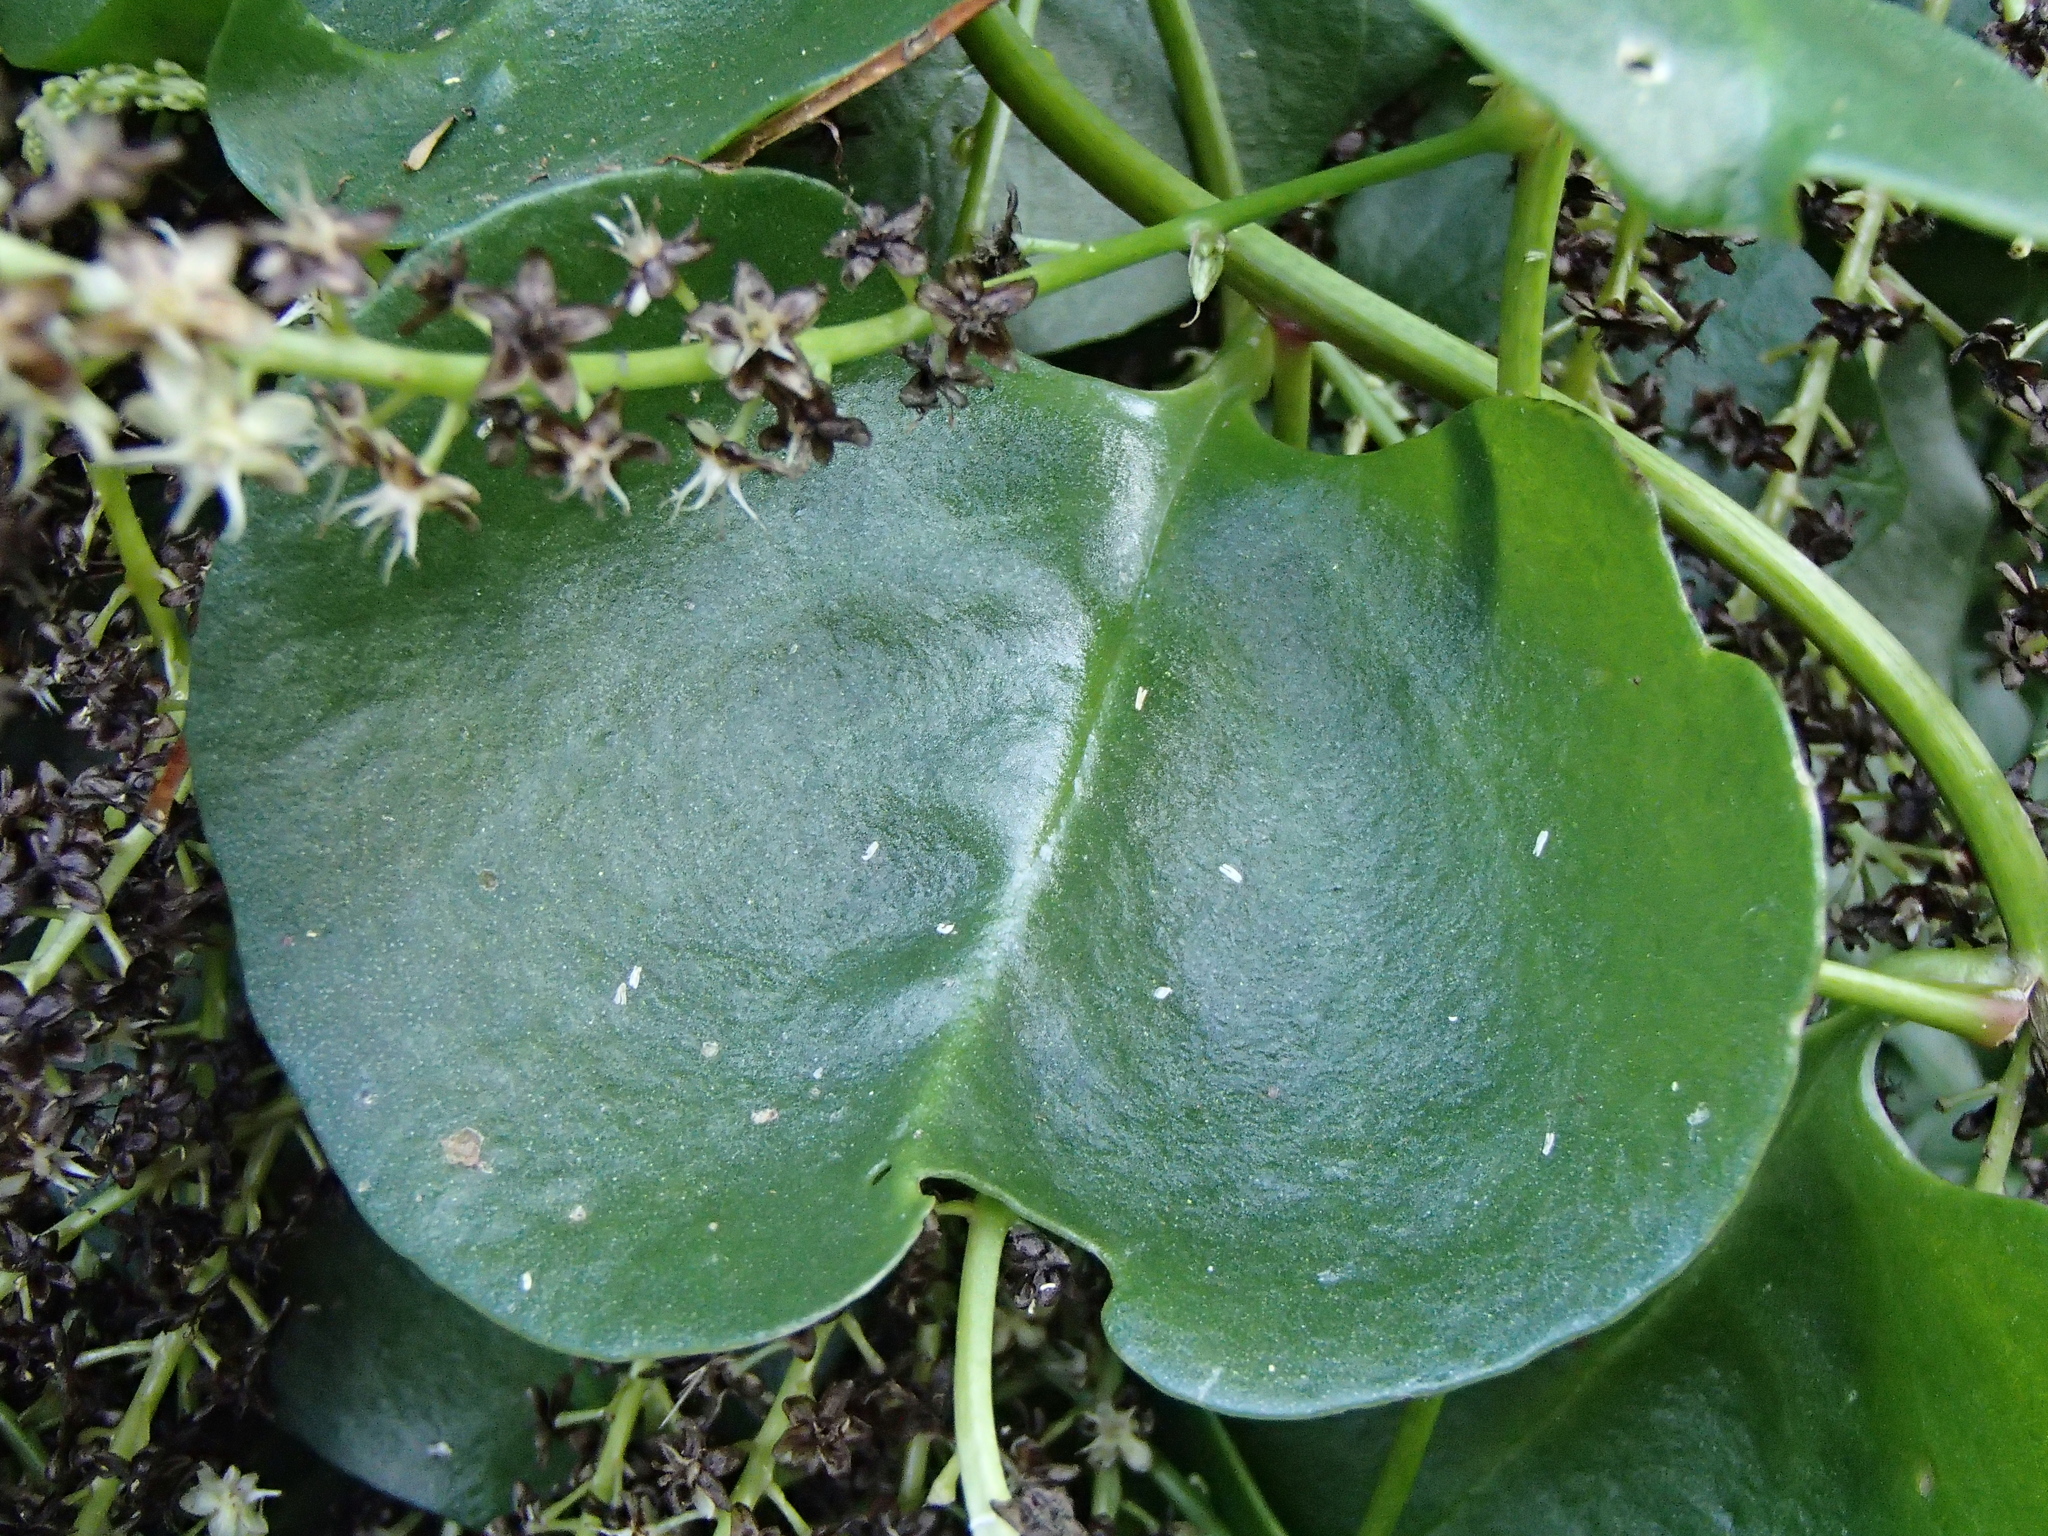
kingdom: Plantae
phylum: Tracheophyta
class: Magnoliopsida
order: Caryophyllales
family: Basellaceae
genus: Anredera
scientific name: Anredera cordifolia
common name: Heartleaf madeiravine
